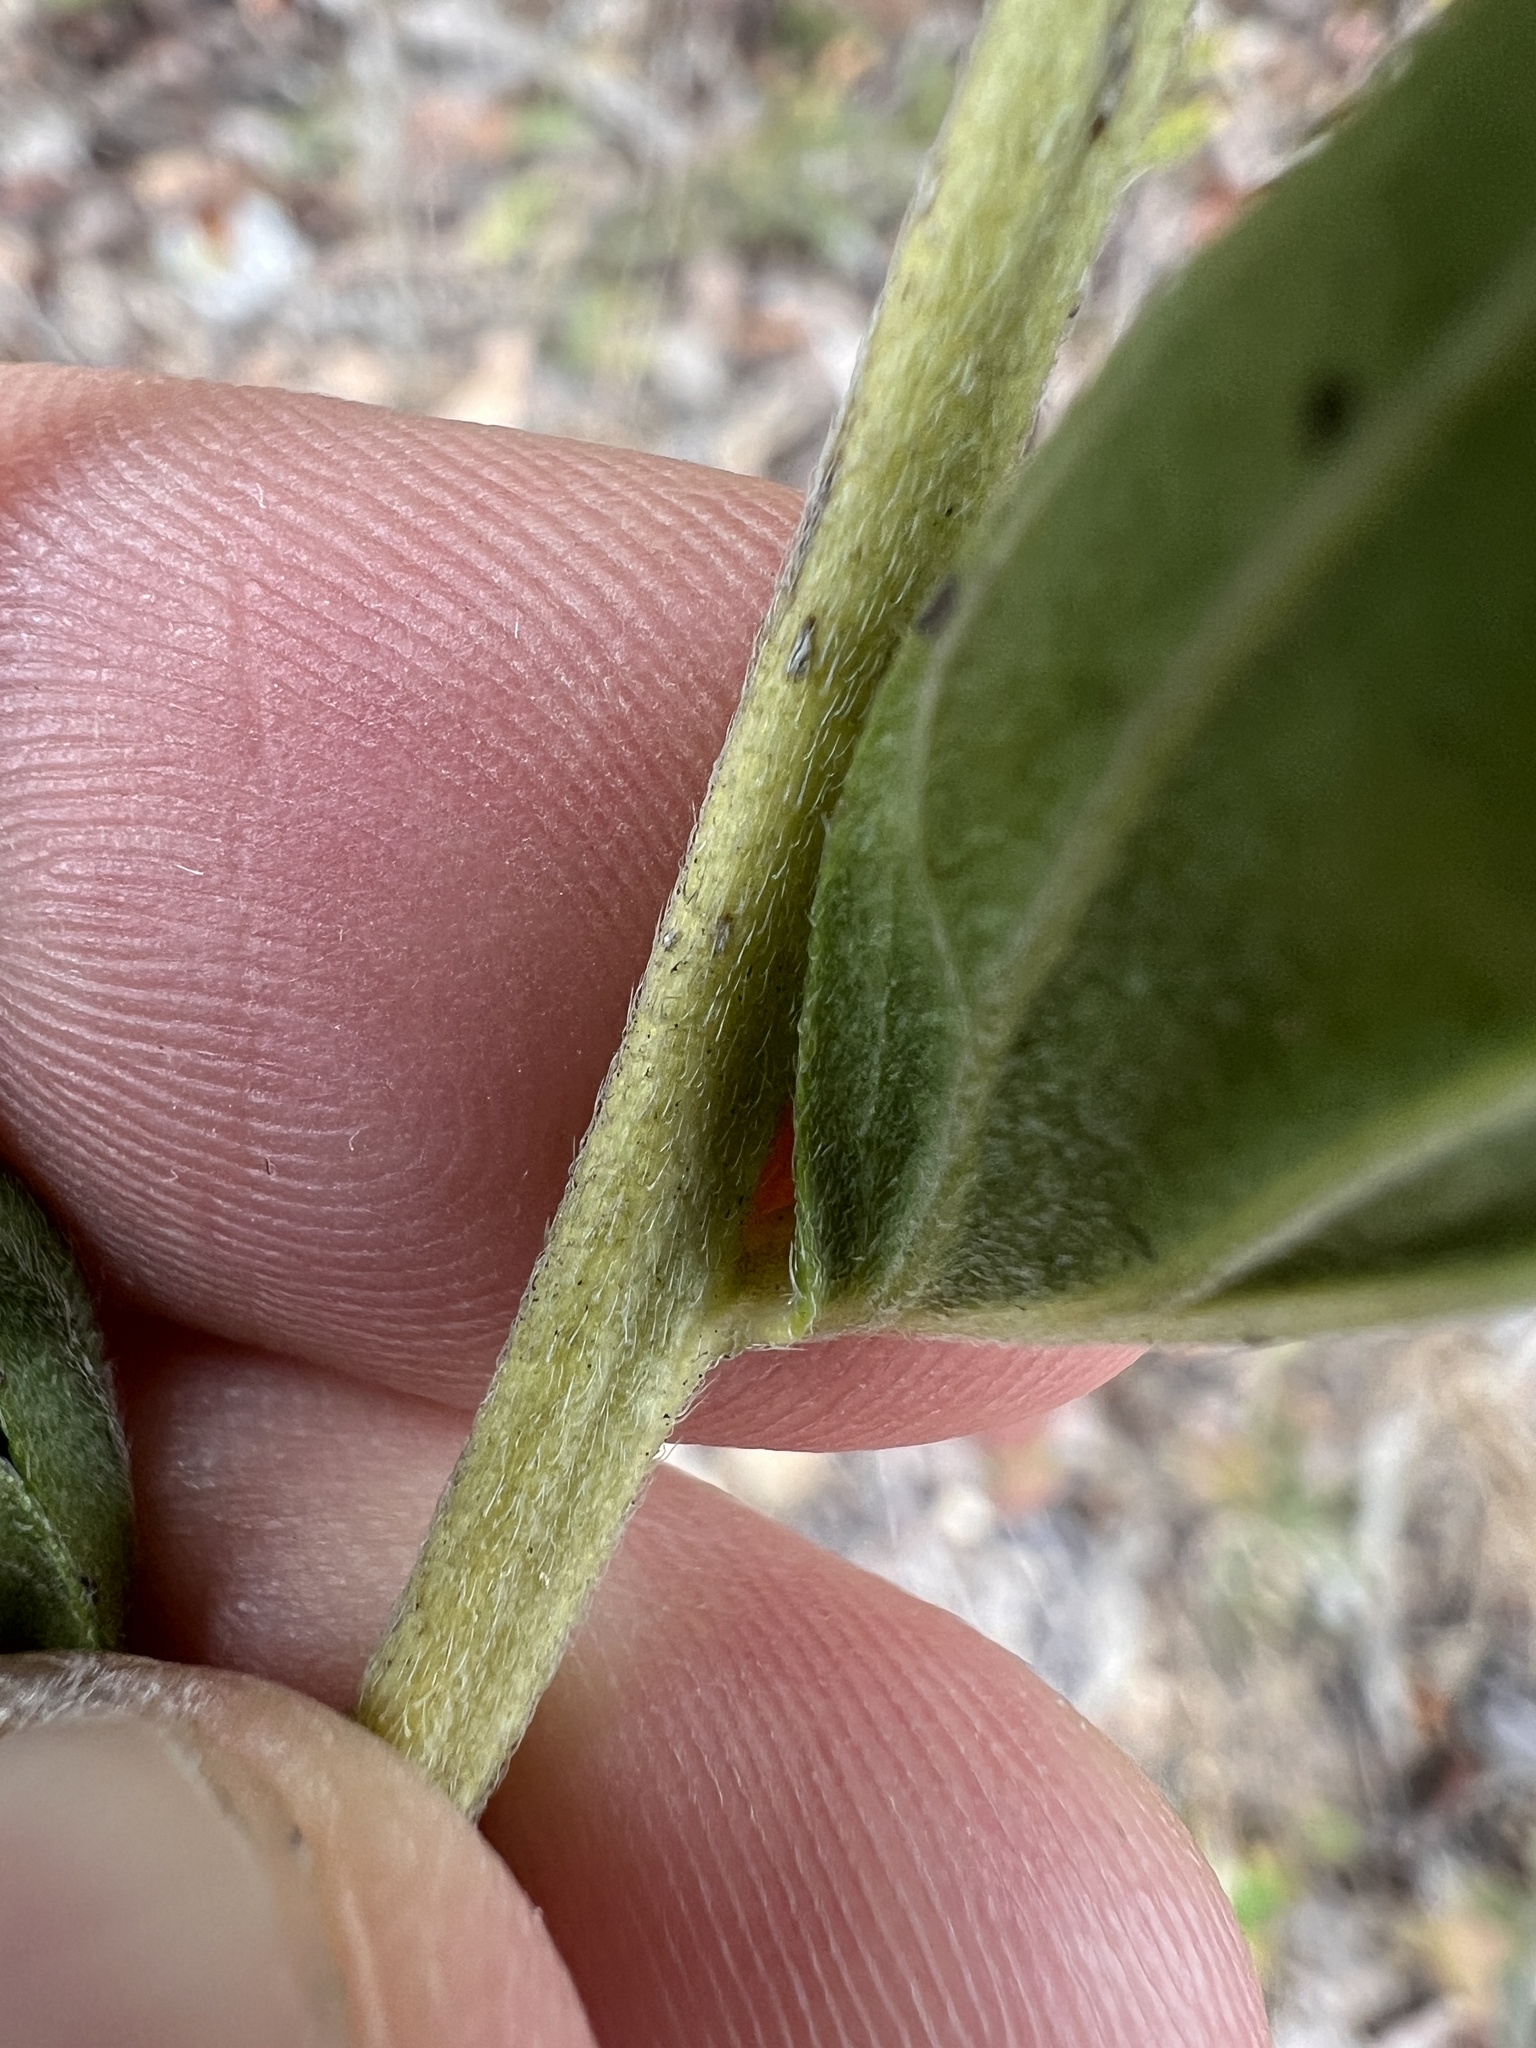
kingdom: Plantae
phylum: Tracheophyta
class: Magnoliopsida
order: Boraginales
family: Boraginaceae
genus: Lithospermum
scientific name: Lithospermum subsetosum
